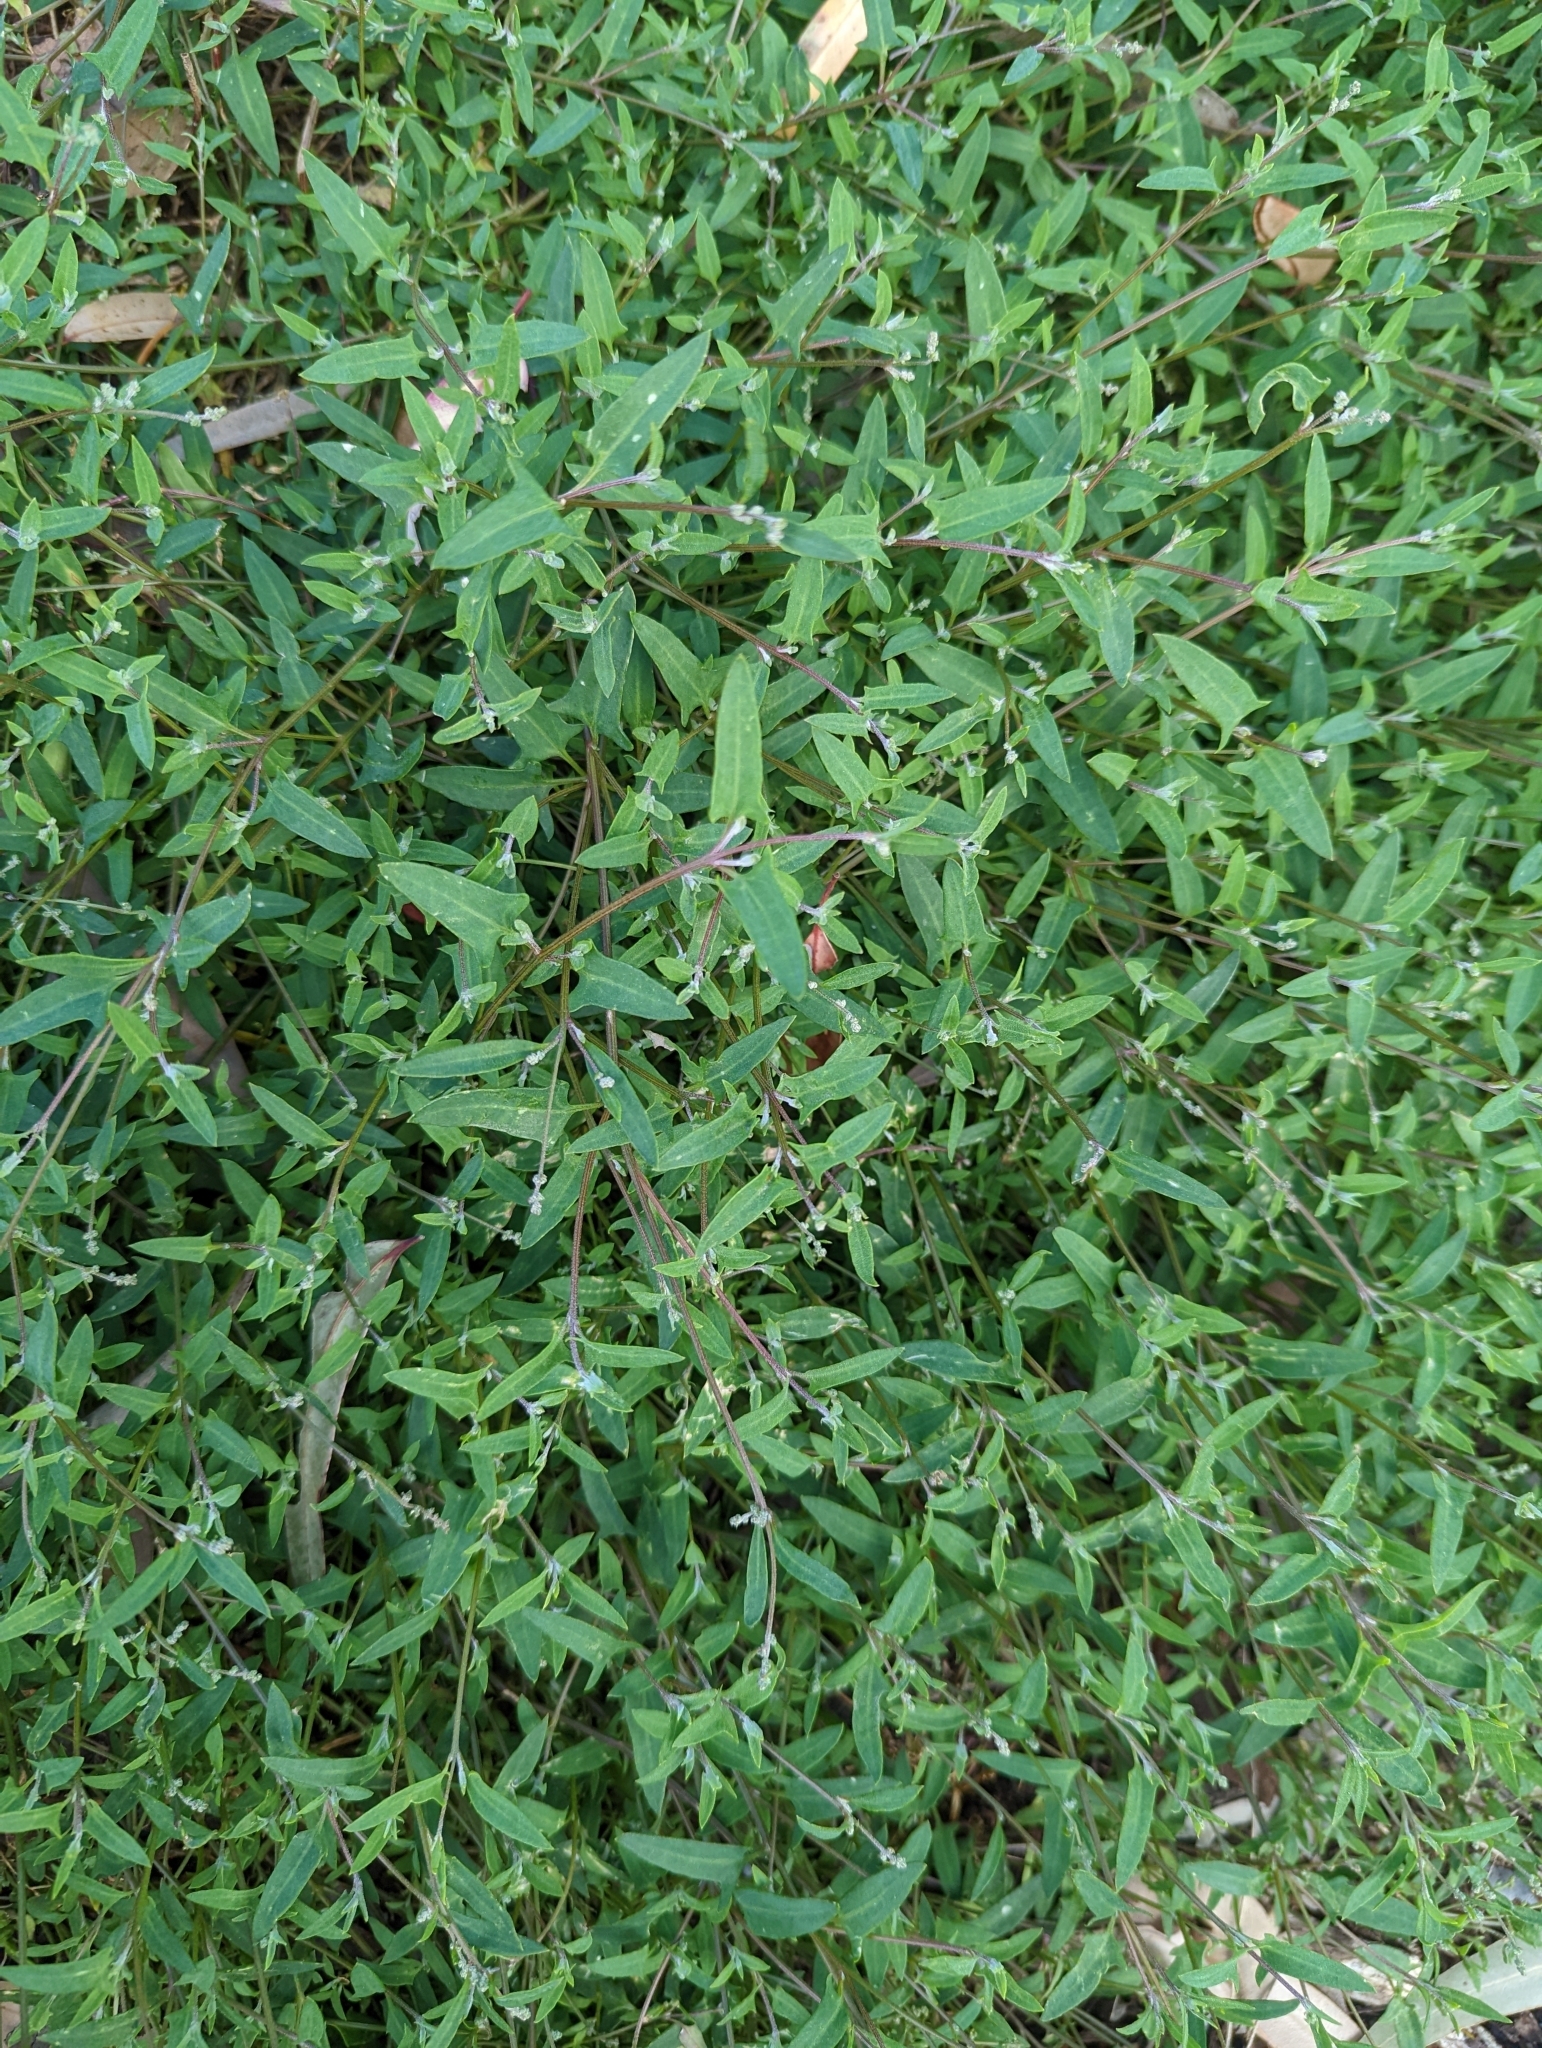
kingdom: Plantae
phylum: Tracheophyta
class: Magnoliopsida
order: Caryophyllales
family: Amaranthaceae
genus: Chenopodium
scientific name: Chenopodium nutans
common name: Climbing-saltbush
